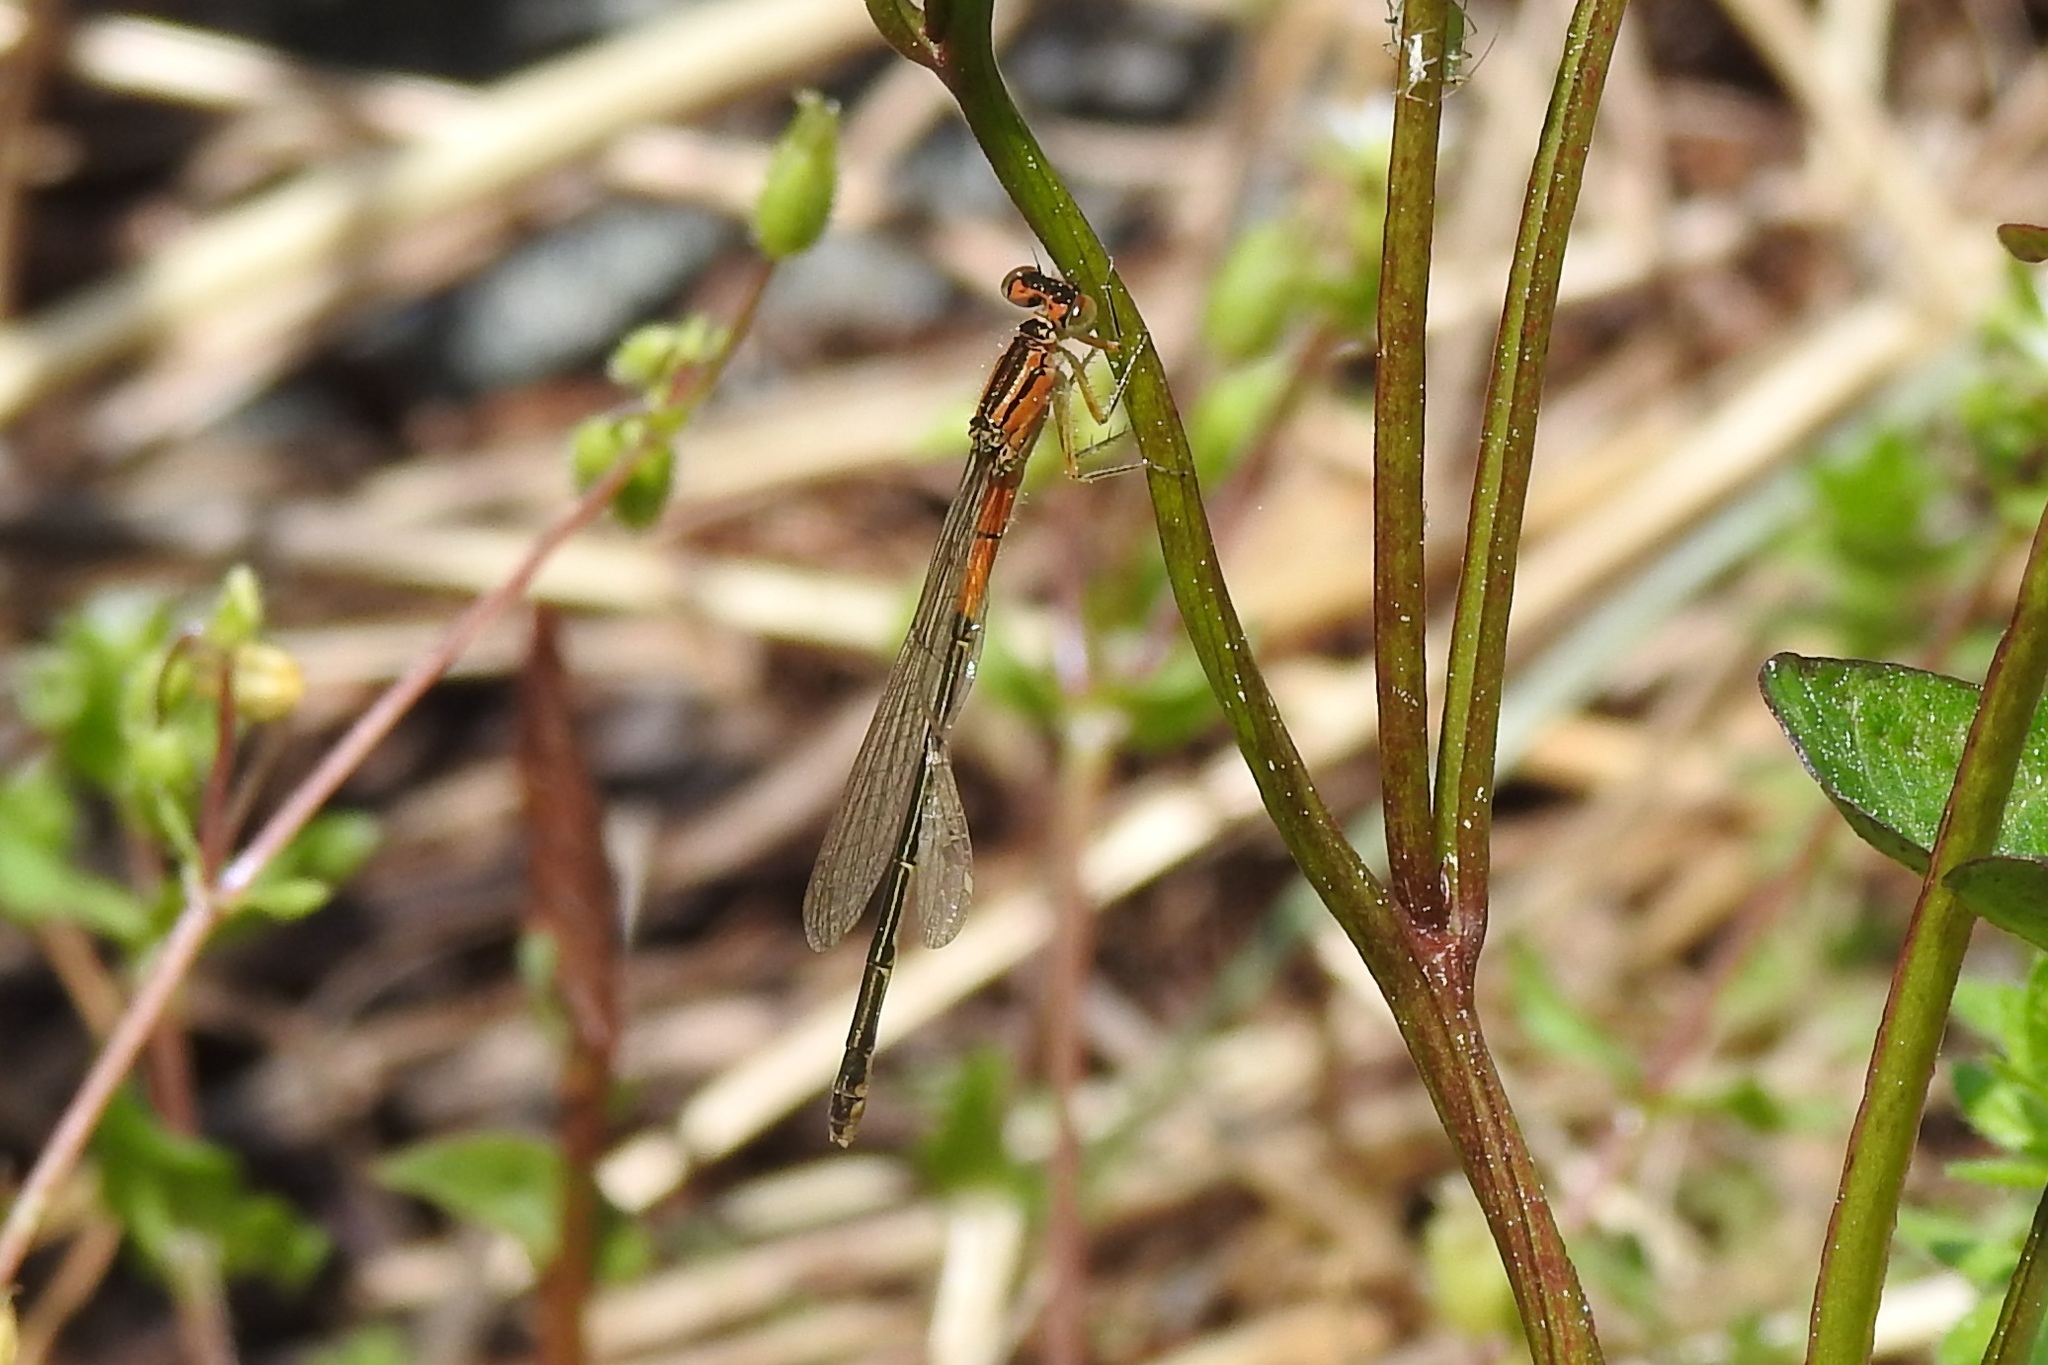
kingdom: Animalia
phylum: Arthropoda
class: Insecta
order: Odonata
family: Coenagrionidae
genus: Ischnura
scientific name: Ischnura verticalis
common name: Eastern forktail
